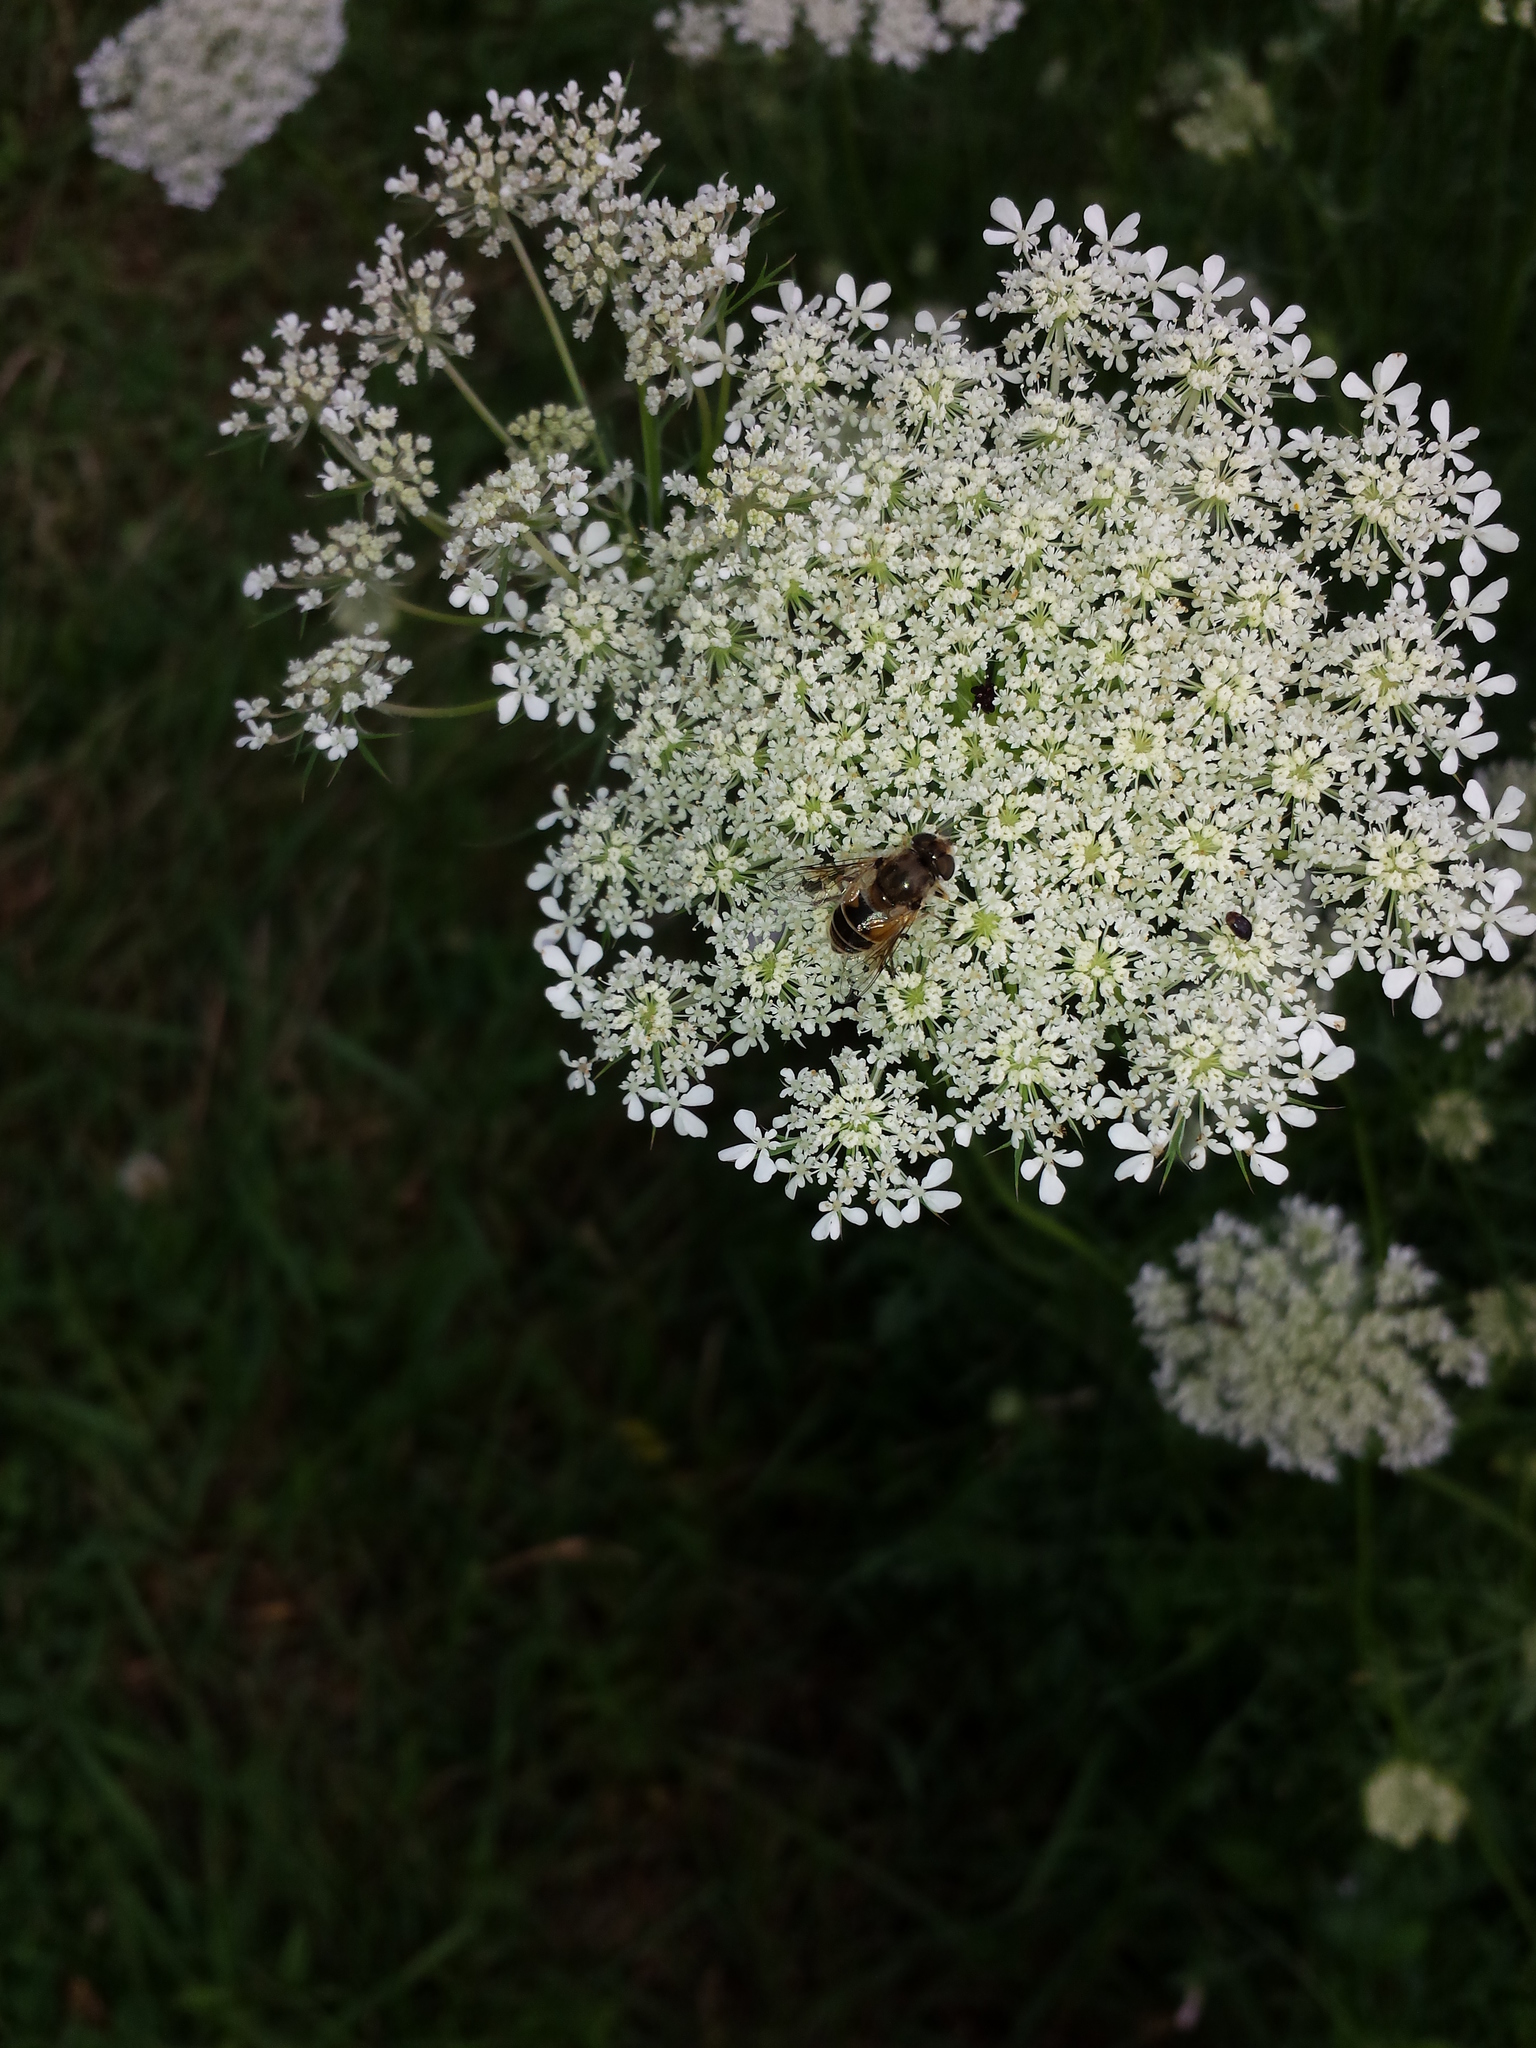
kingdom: Plantae
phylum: Tracheophyta
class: Magnoliopsida
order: Apiales
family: Apiaceae
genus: Daucus
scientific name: Daucus carota
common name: Wild carrot
